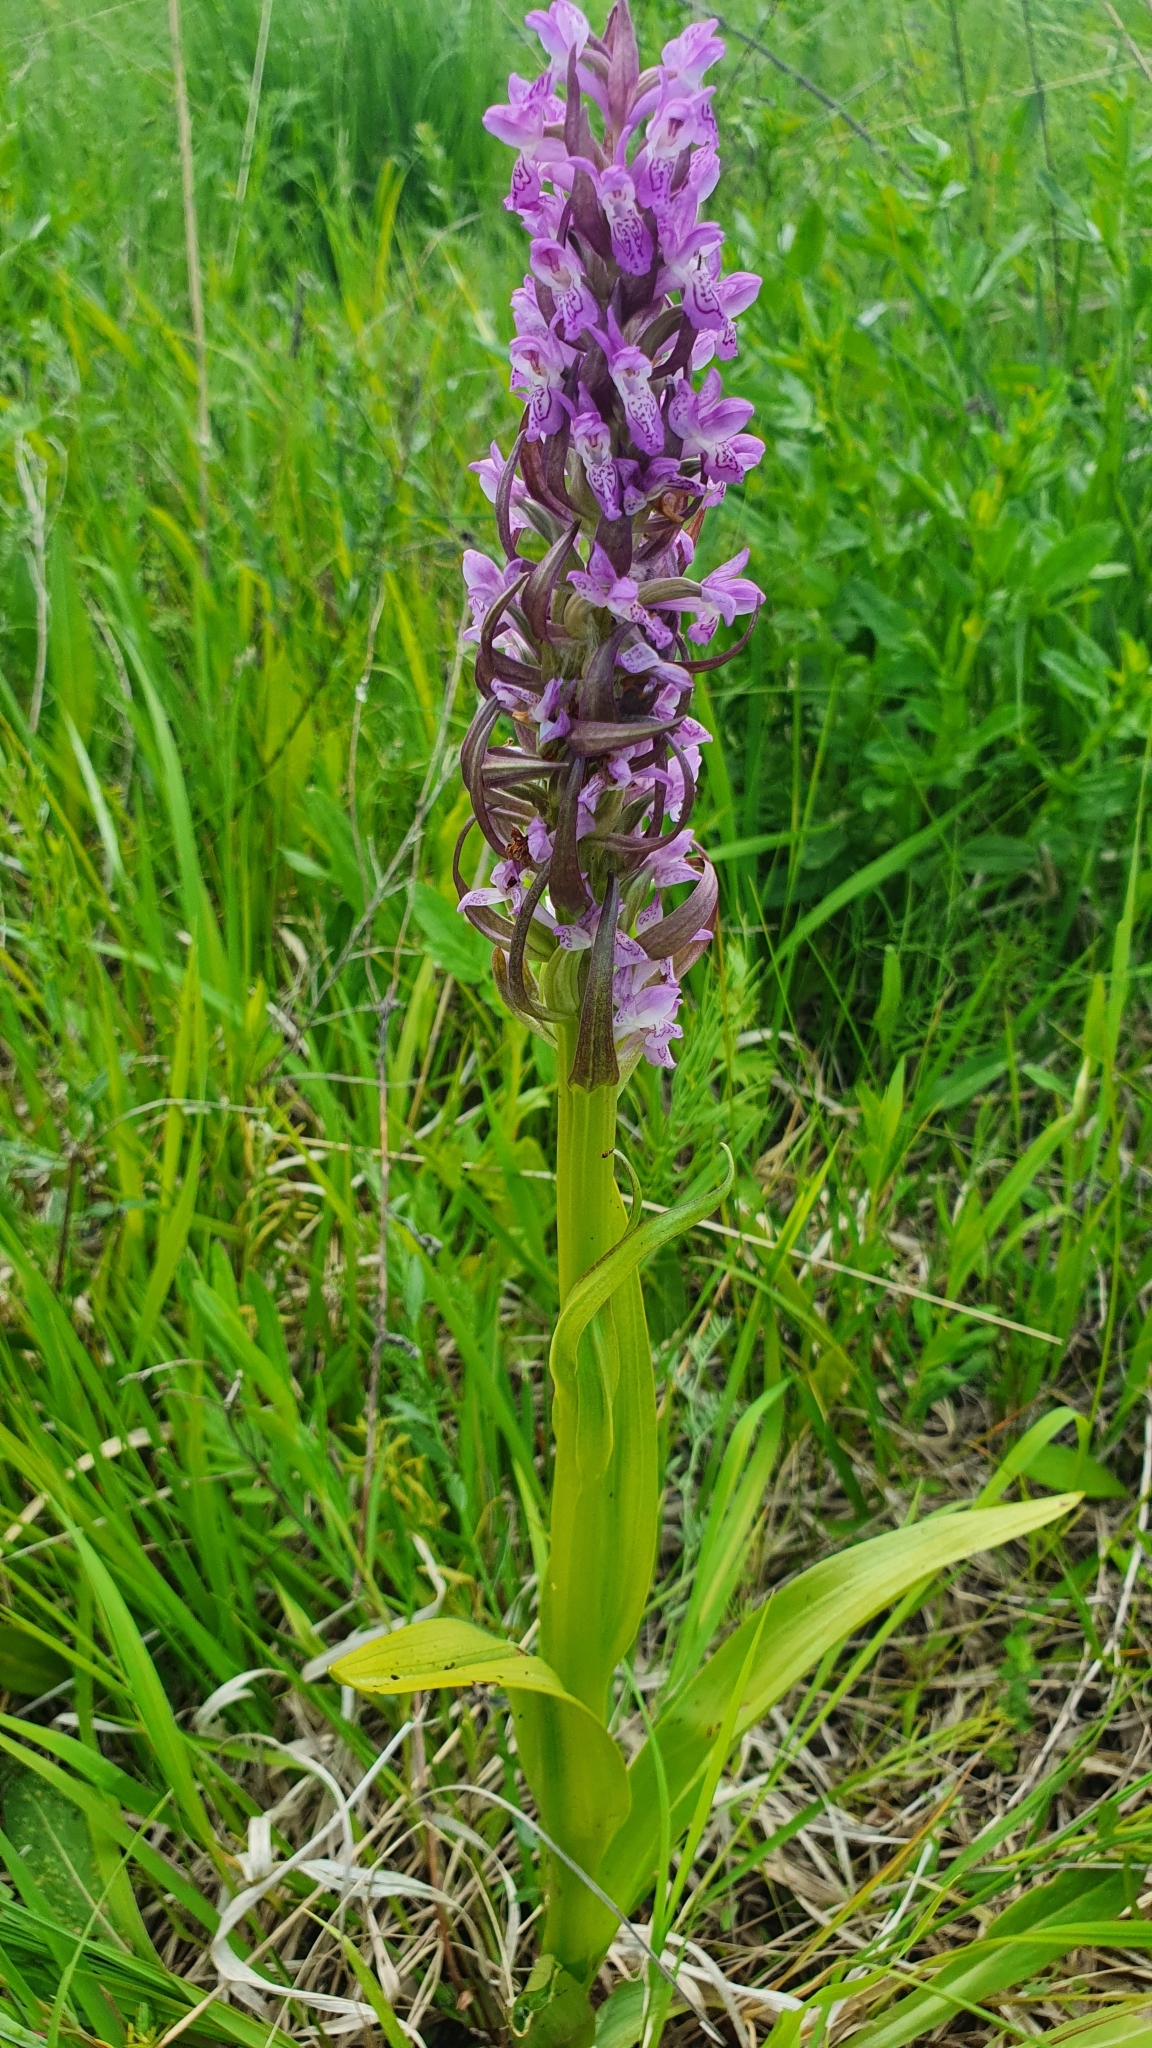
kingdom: Plantae
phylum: Tracheophyta
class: Liliopsida
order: Asparagales
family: Orchidaceae
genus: Dactylorhiza
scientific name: Dactylorhiza incarnata
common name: Early marsh-orchid
